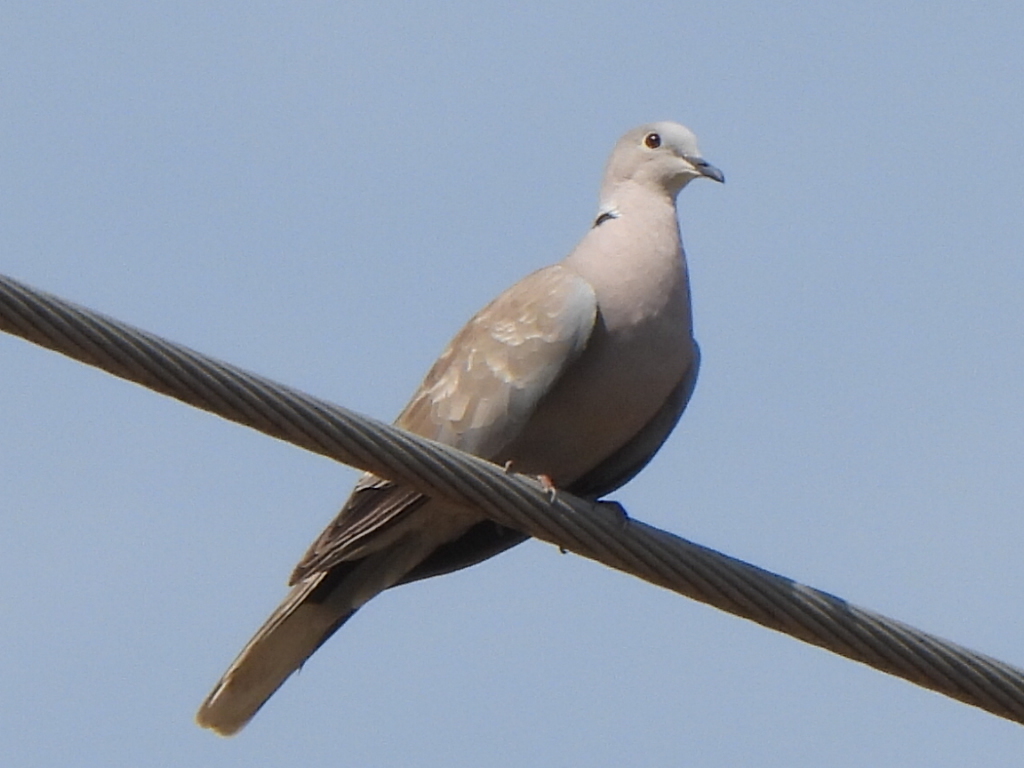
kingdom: Animalia
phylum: Chordata
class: Aves
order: Columbiformes
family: Columbidae
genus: Streptopelia
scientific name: Streptopelia decaocto
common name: Eurasian collared dove
